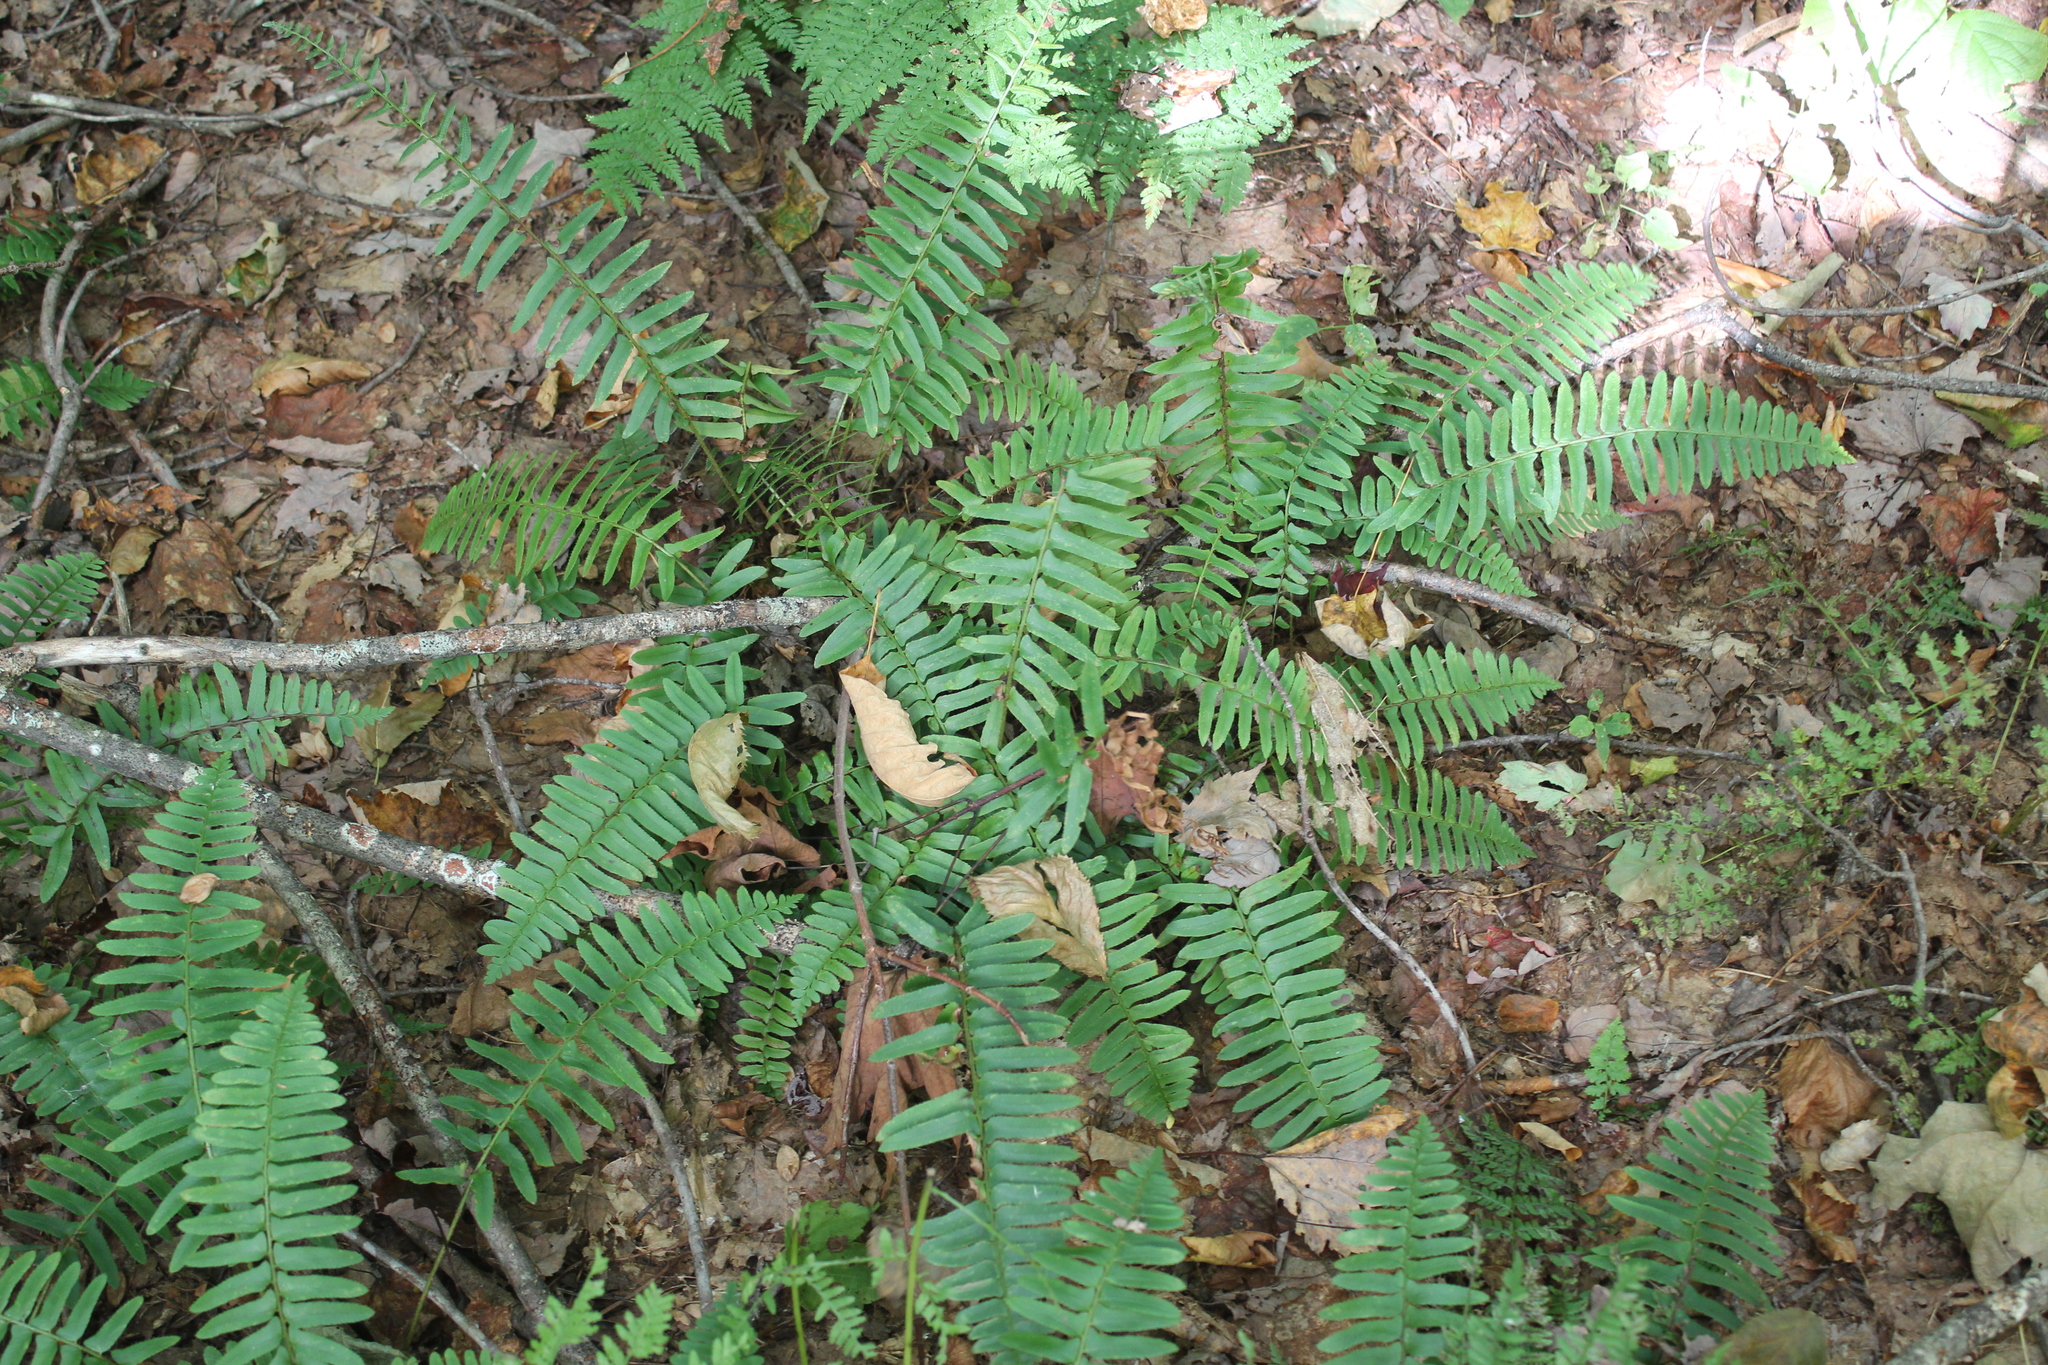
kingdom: Plantae
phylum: Tracheophyta
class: Polypodiopsida
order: Polypodiales
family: Dryopteridaceae
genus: Polystichum
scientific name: Polystichum acrostichoides
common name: Christmas fern
